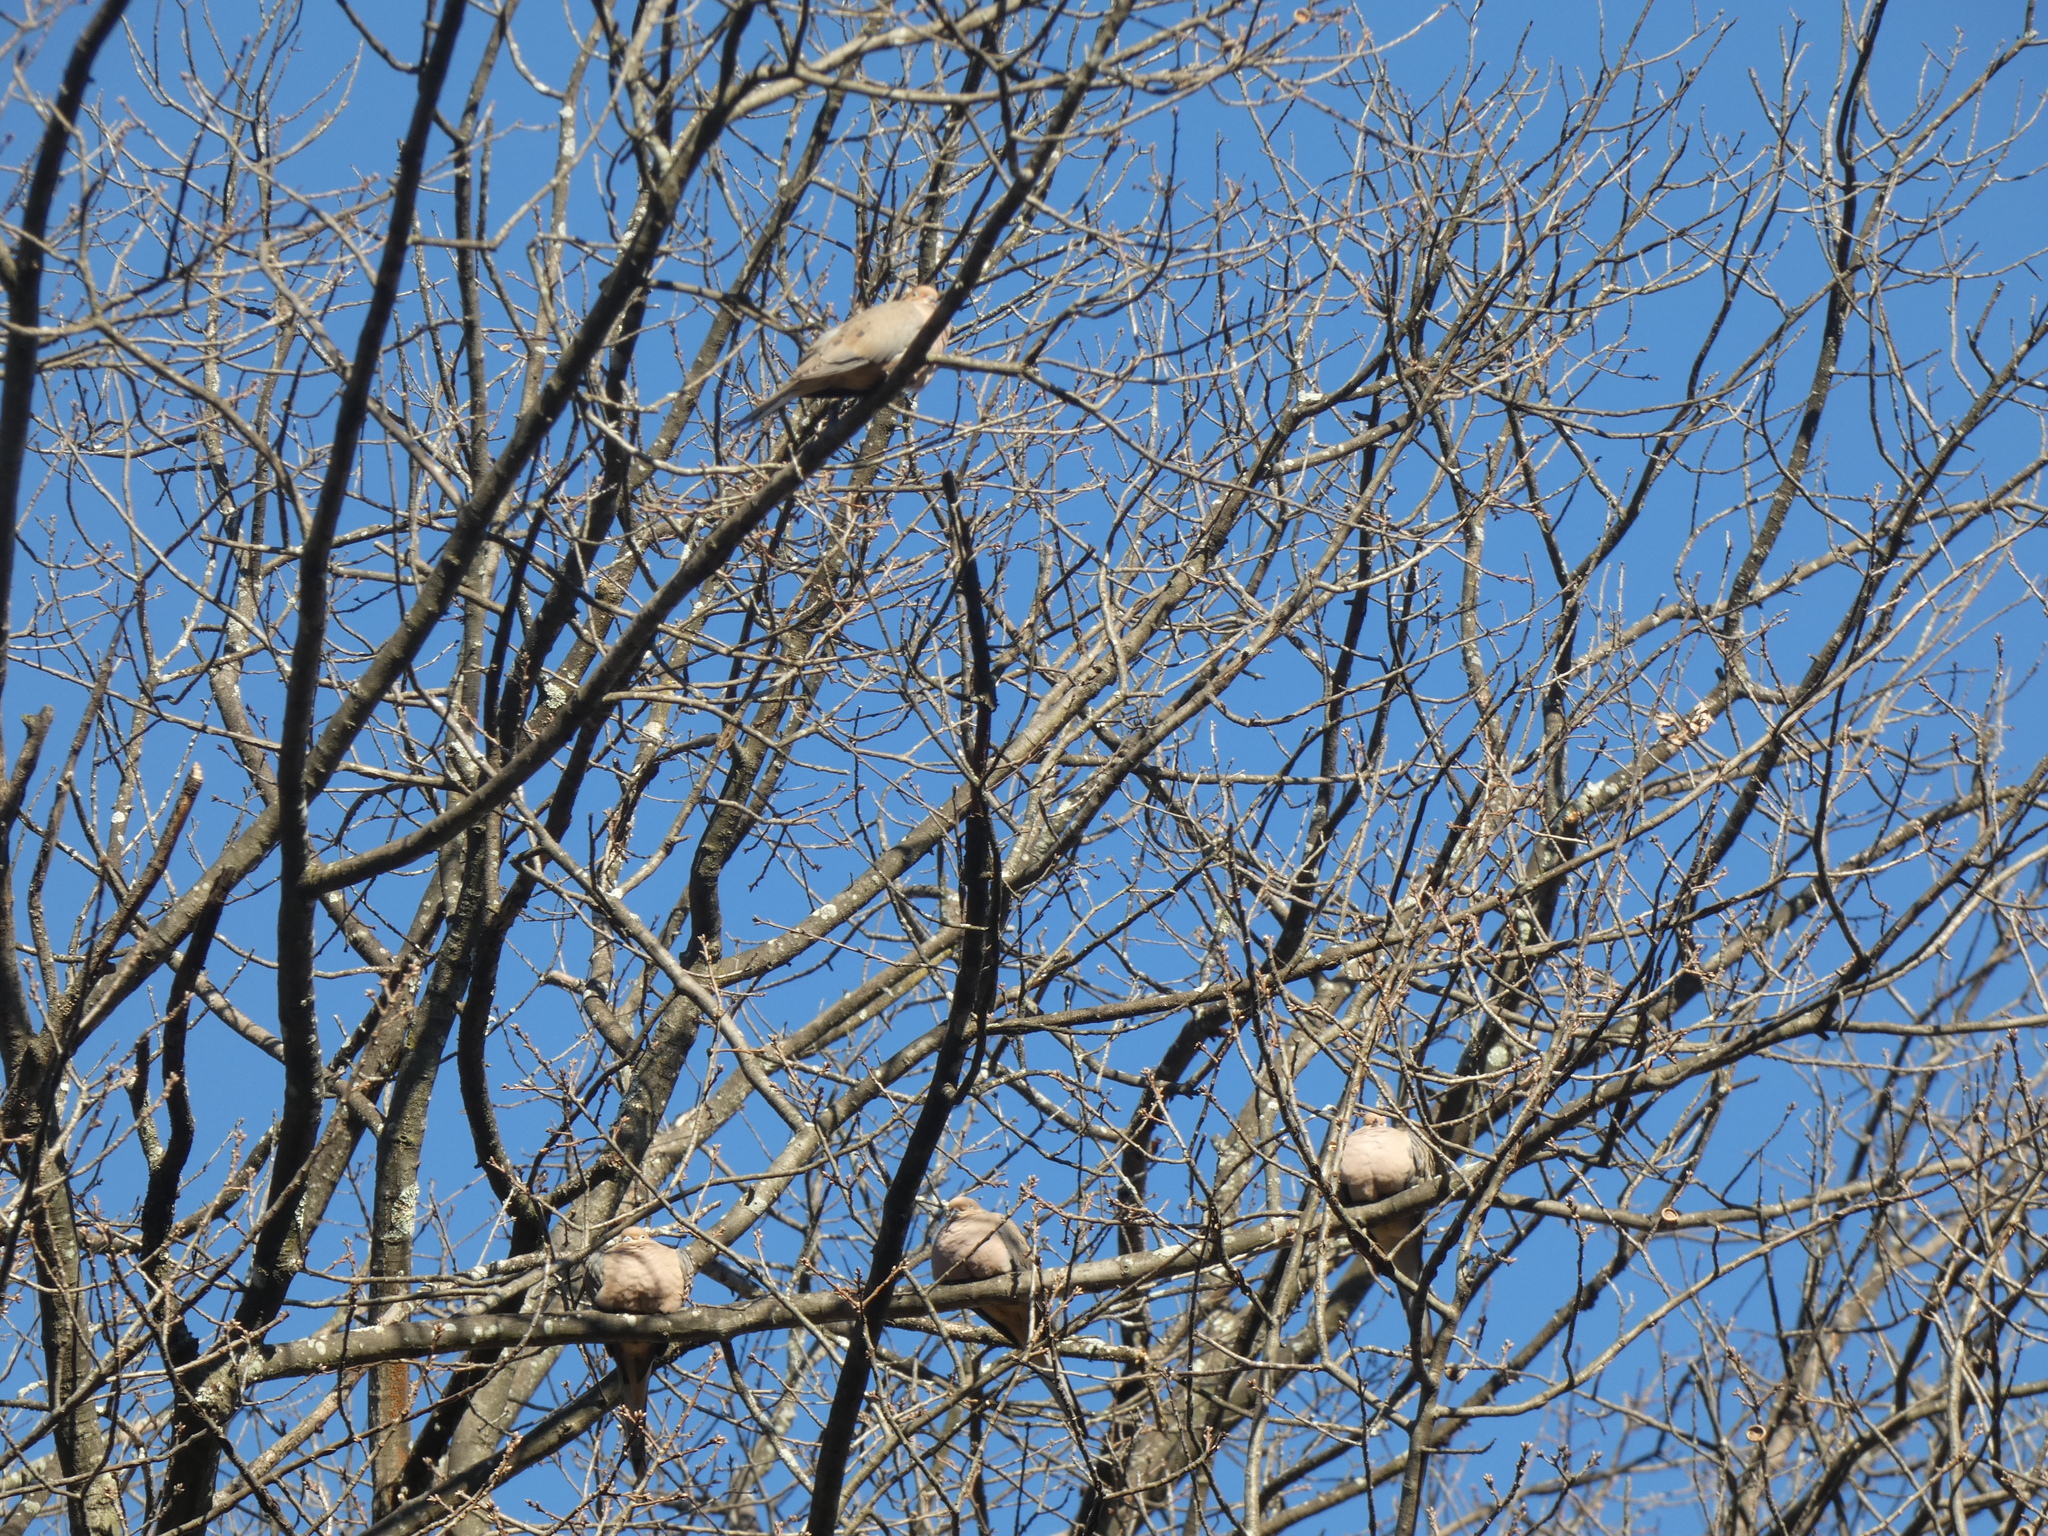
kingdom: Animalia
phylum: Chordata
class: Aves
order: Columbiformes
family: Columbidae
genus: Zenaida
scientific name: Zenaida macroura
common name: Mourning dove
